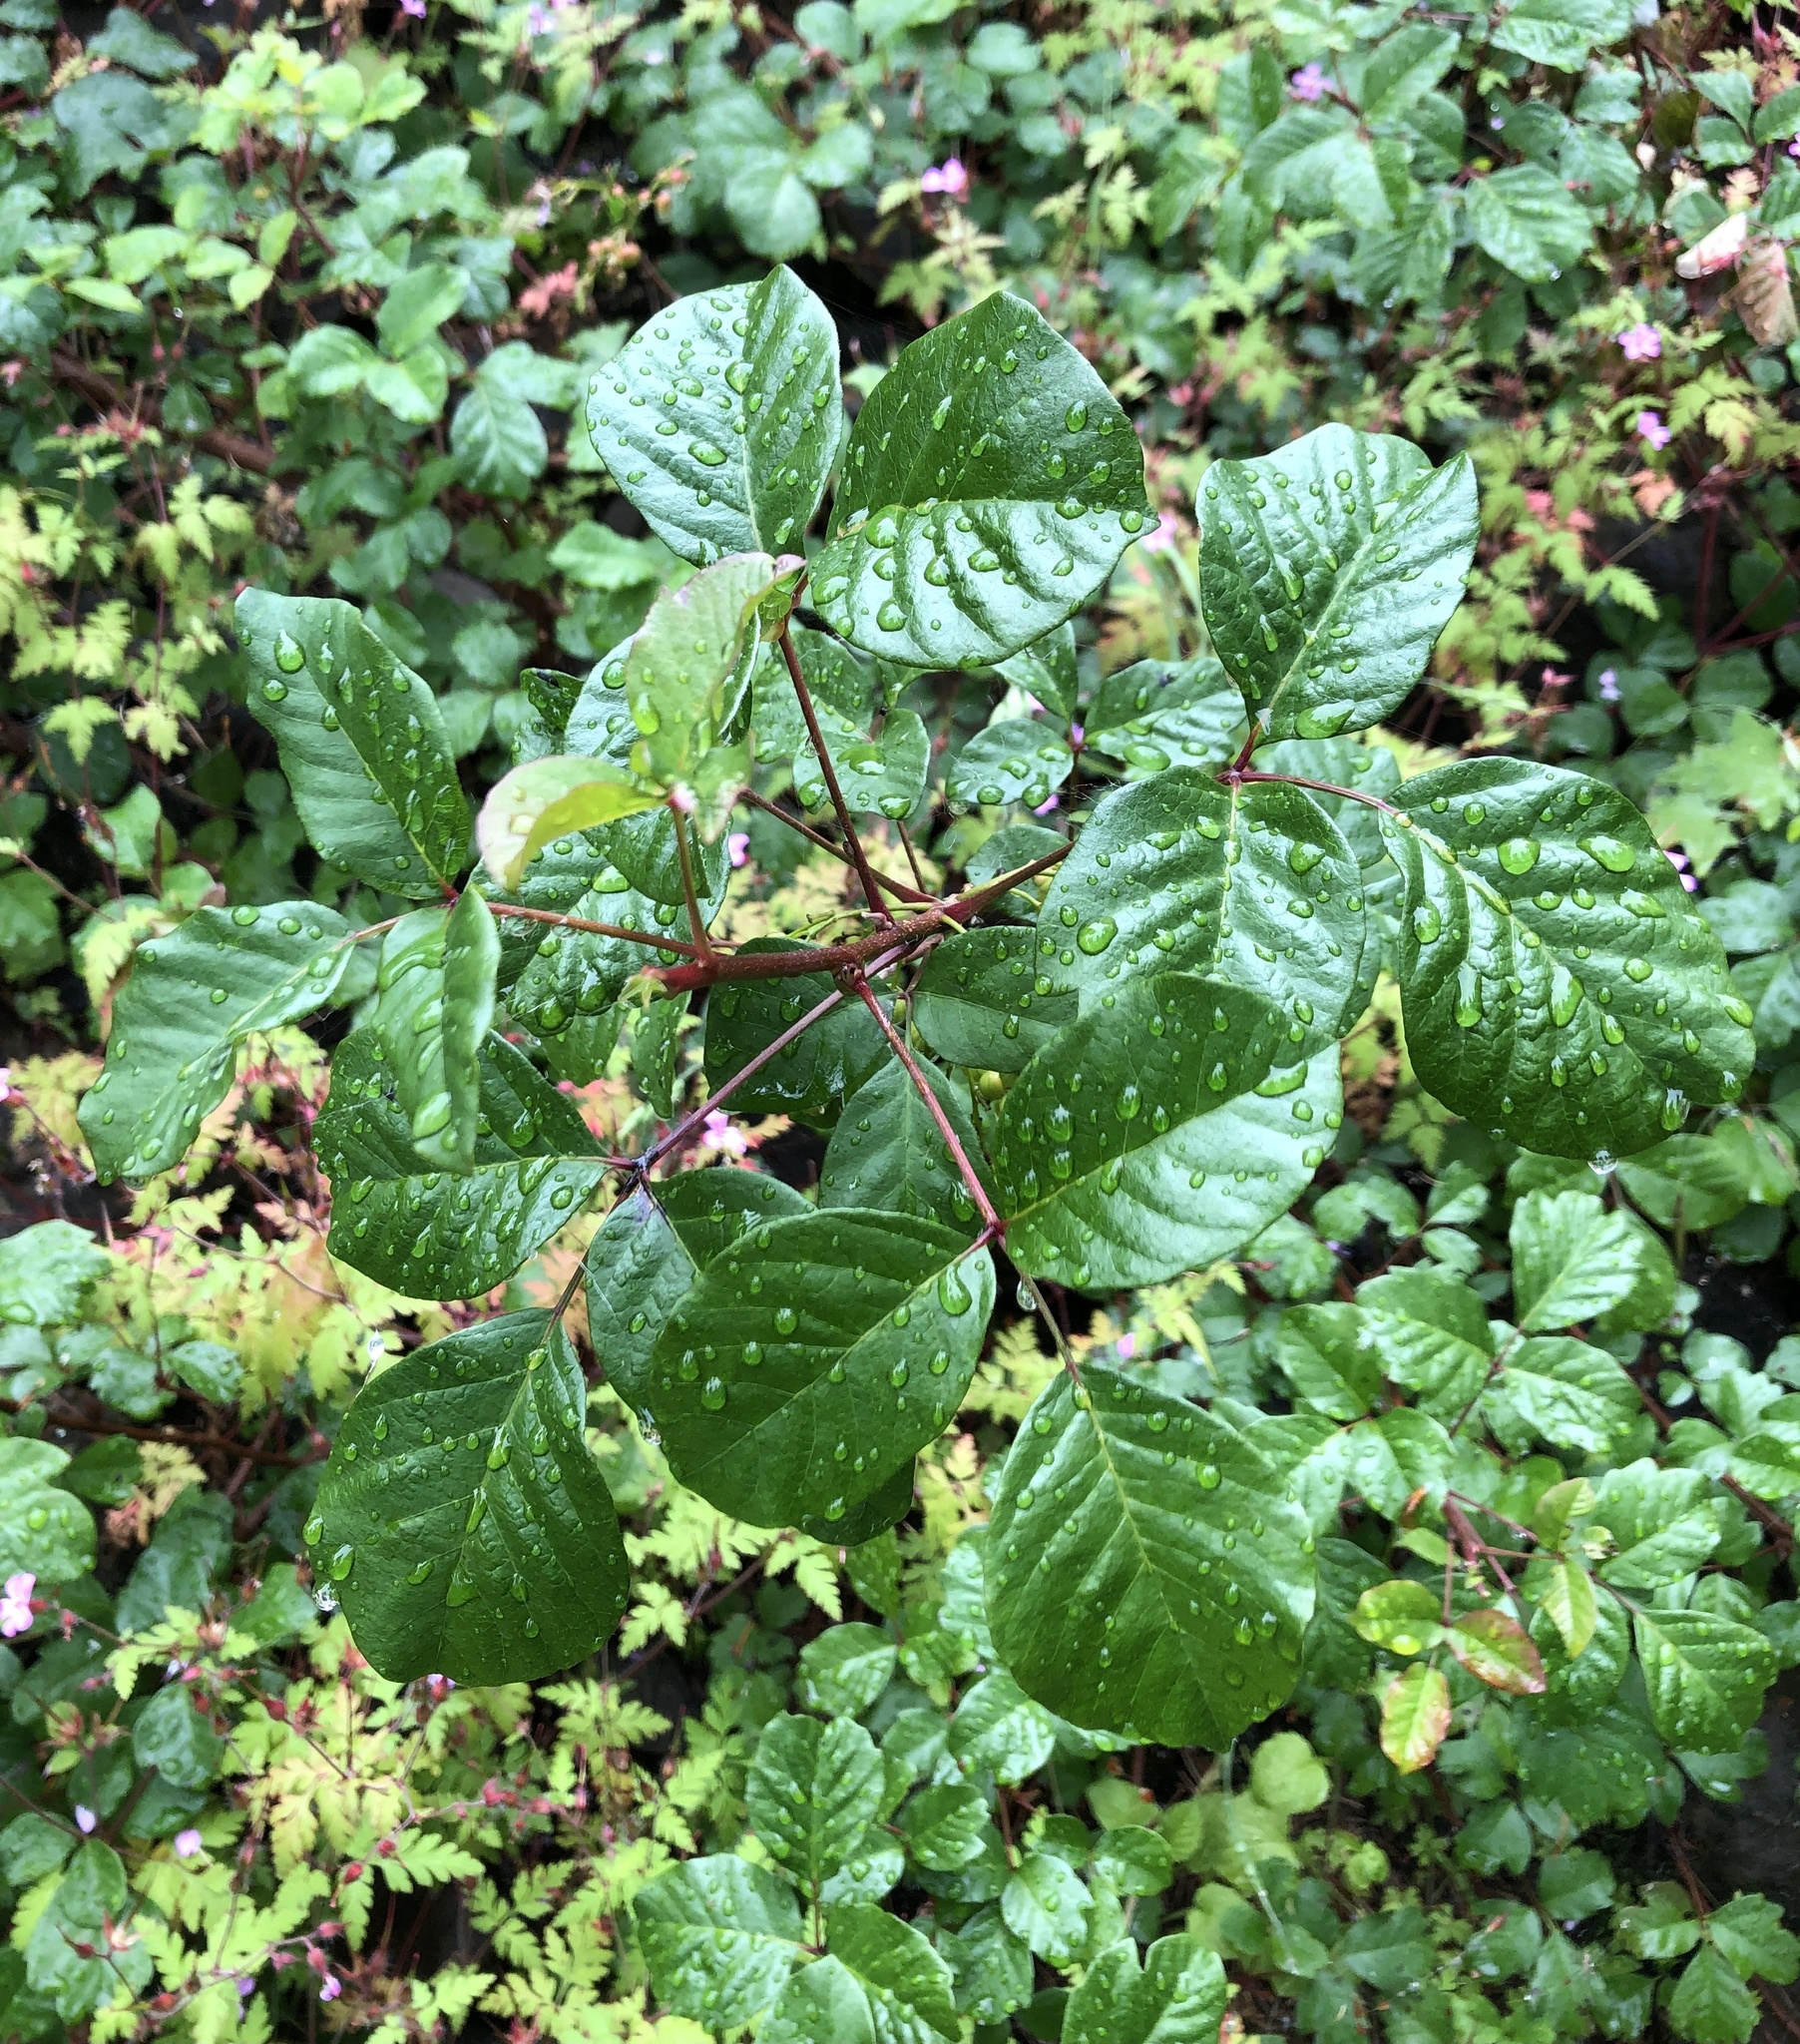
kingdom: Plantae
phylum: Tracheophyta
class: Magnoliopsida
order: Sapindales
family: Anacardiaceae
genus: Toxicodendron
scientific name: Toxicodendron diversilobum
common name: Pacific poison-oak
